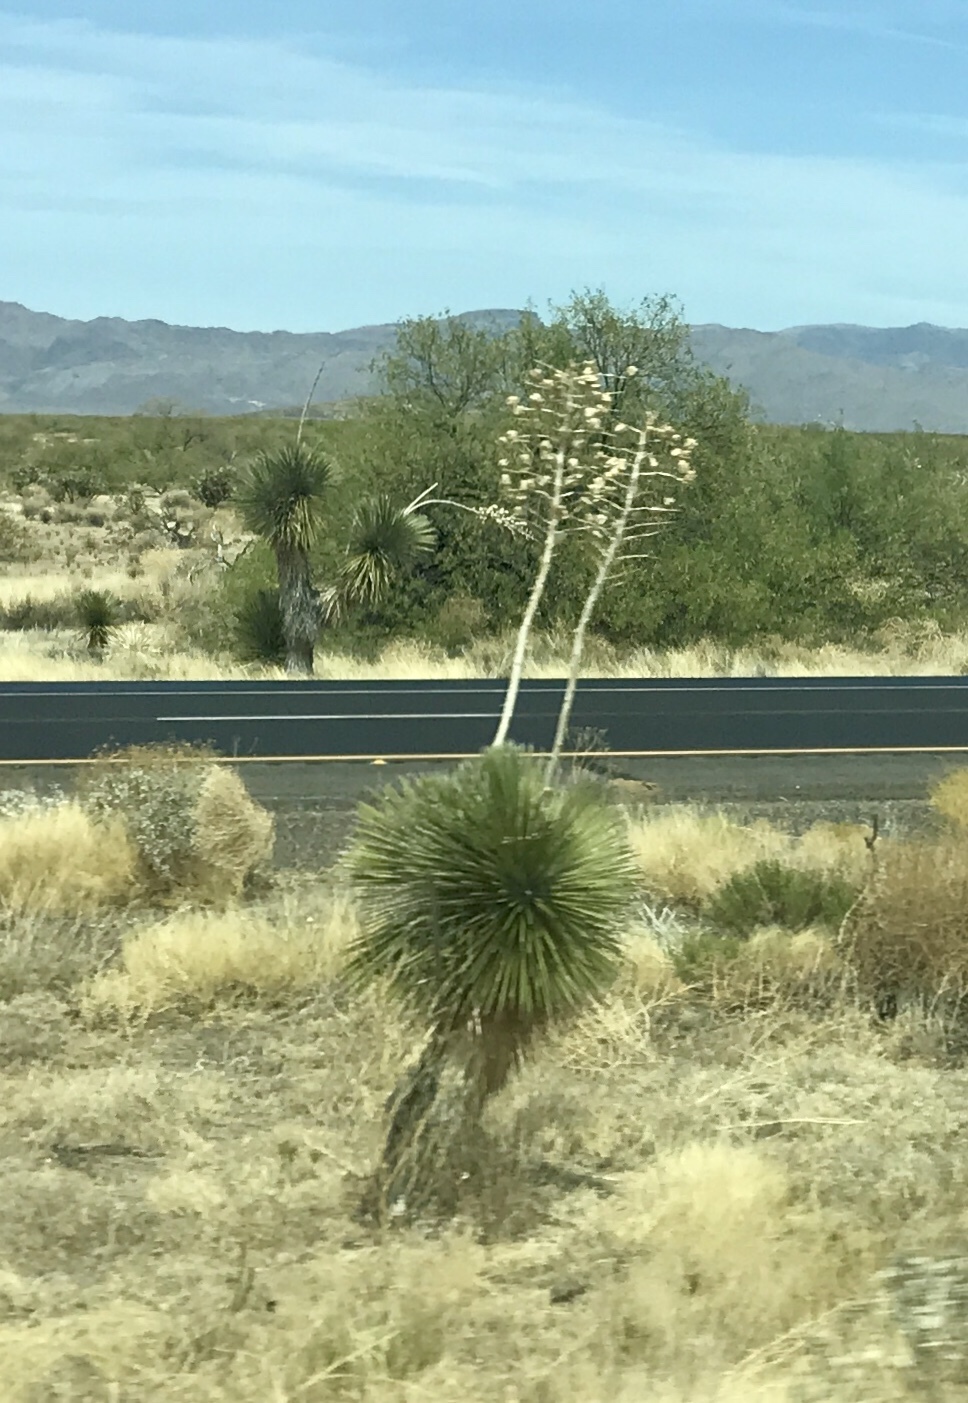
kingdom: Plantae
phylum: Tracheophyta
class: Liliopsida
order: Asparagales
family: Asparagaceae
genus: Yucca
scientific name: Yucca elata
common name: Palmella
